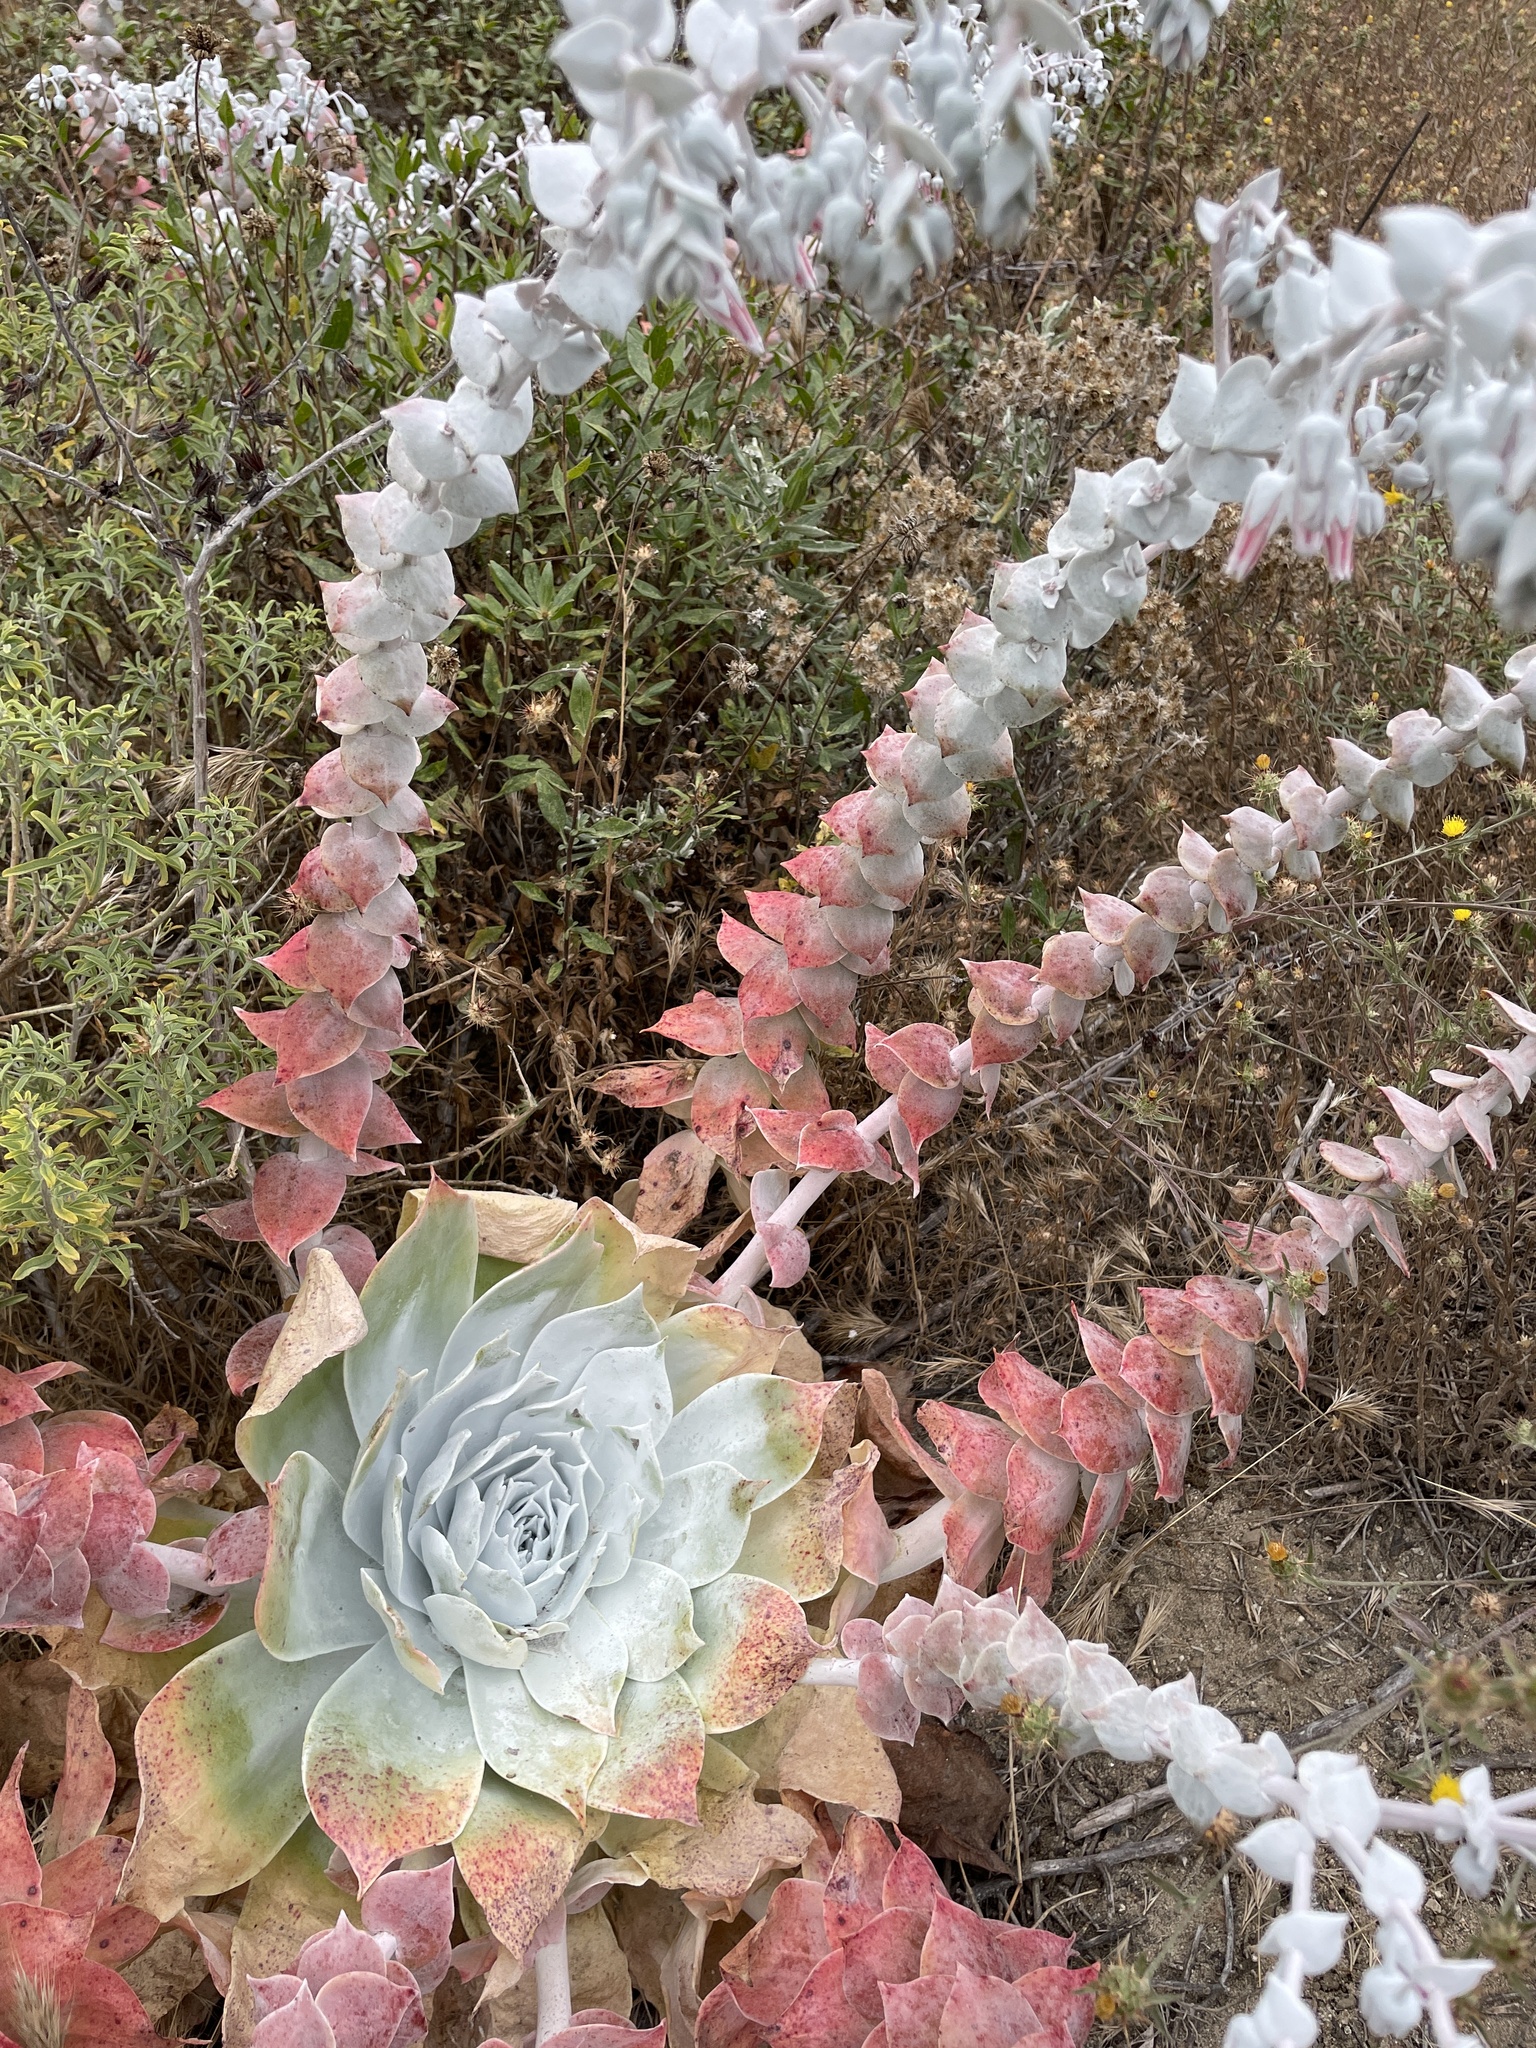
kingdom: Plantae
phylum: Tracheophyta
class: Magnoliopsida
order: Saxifragales
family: Crassulaceae
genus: Dudleya
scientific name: Dudleya pulverulenta
